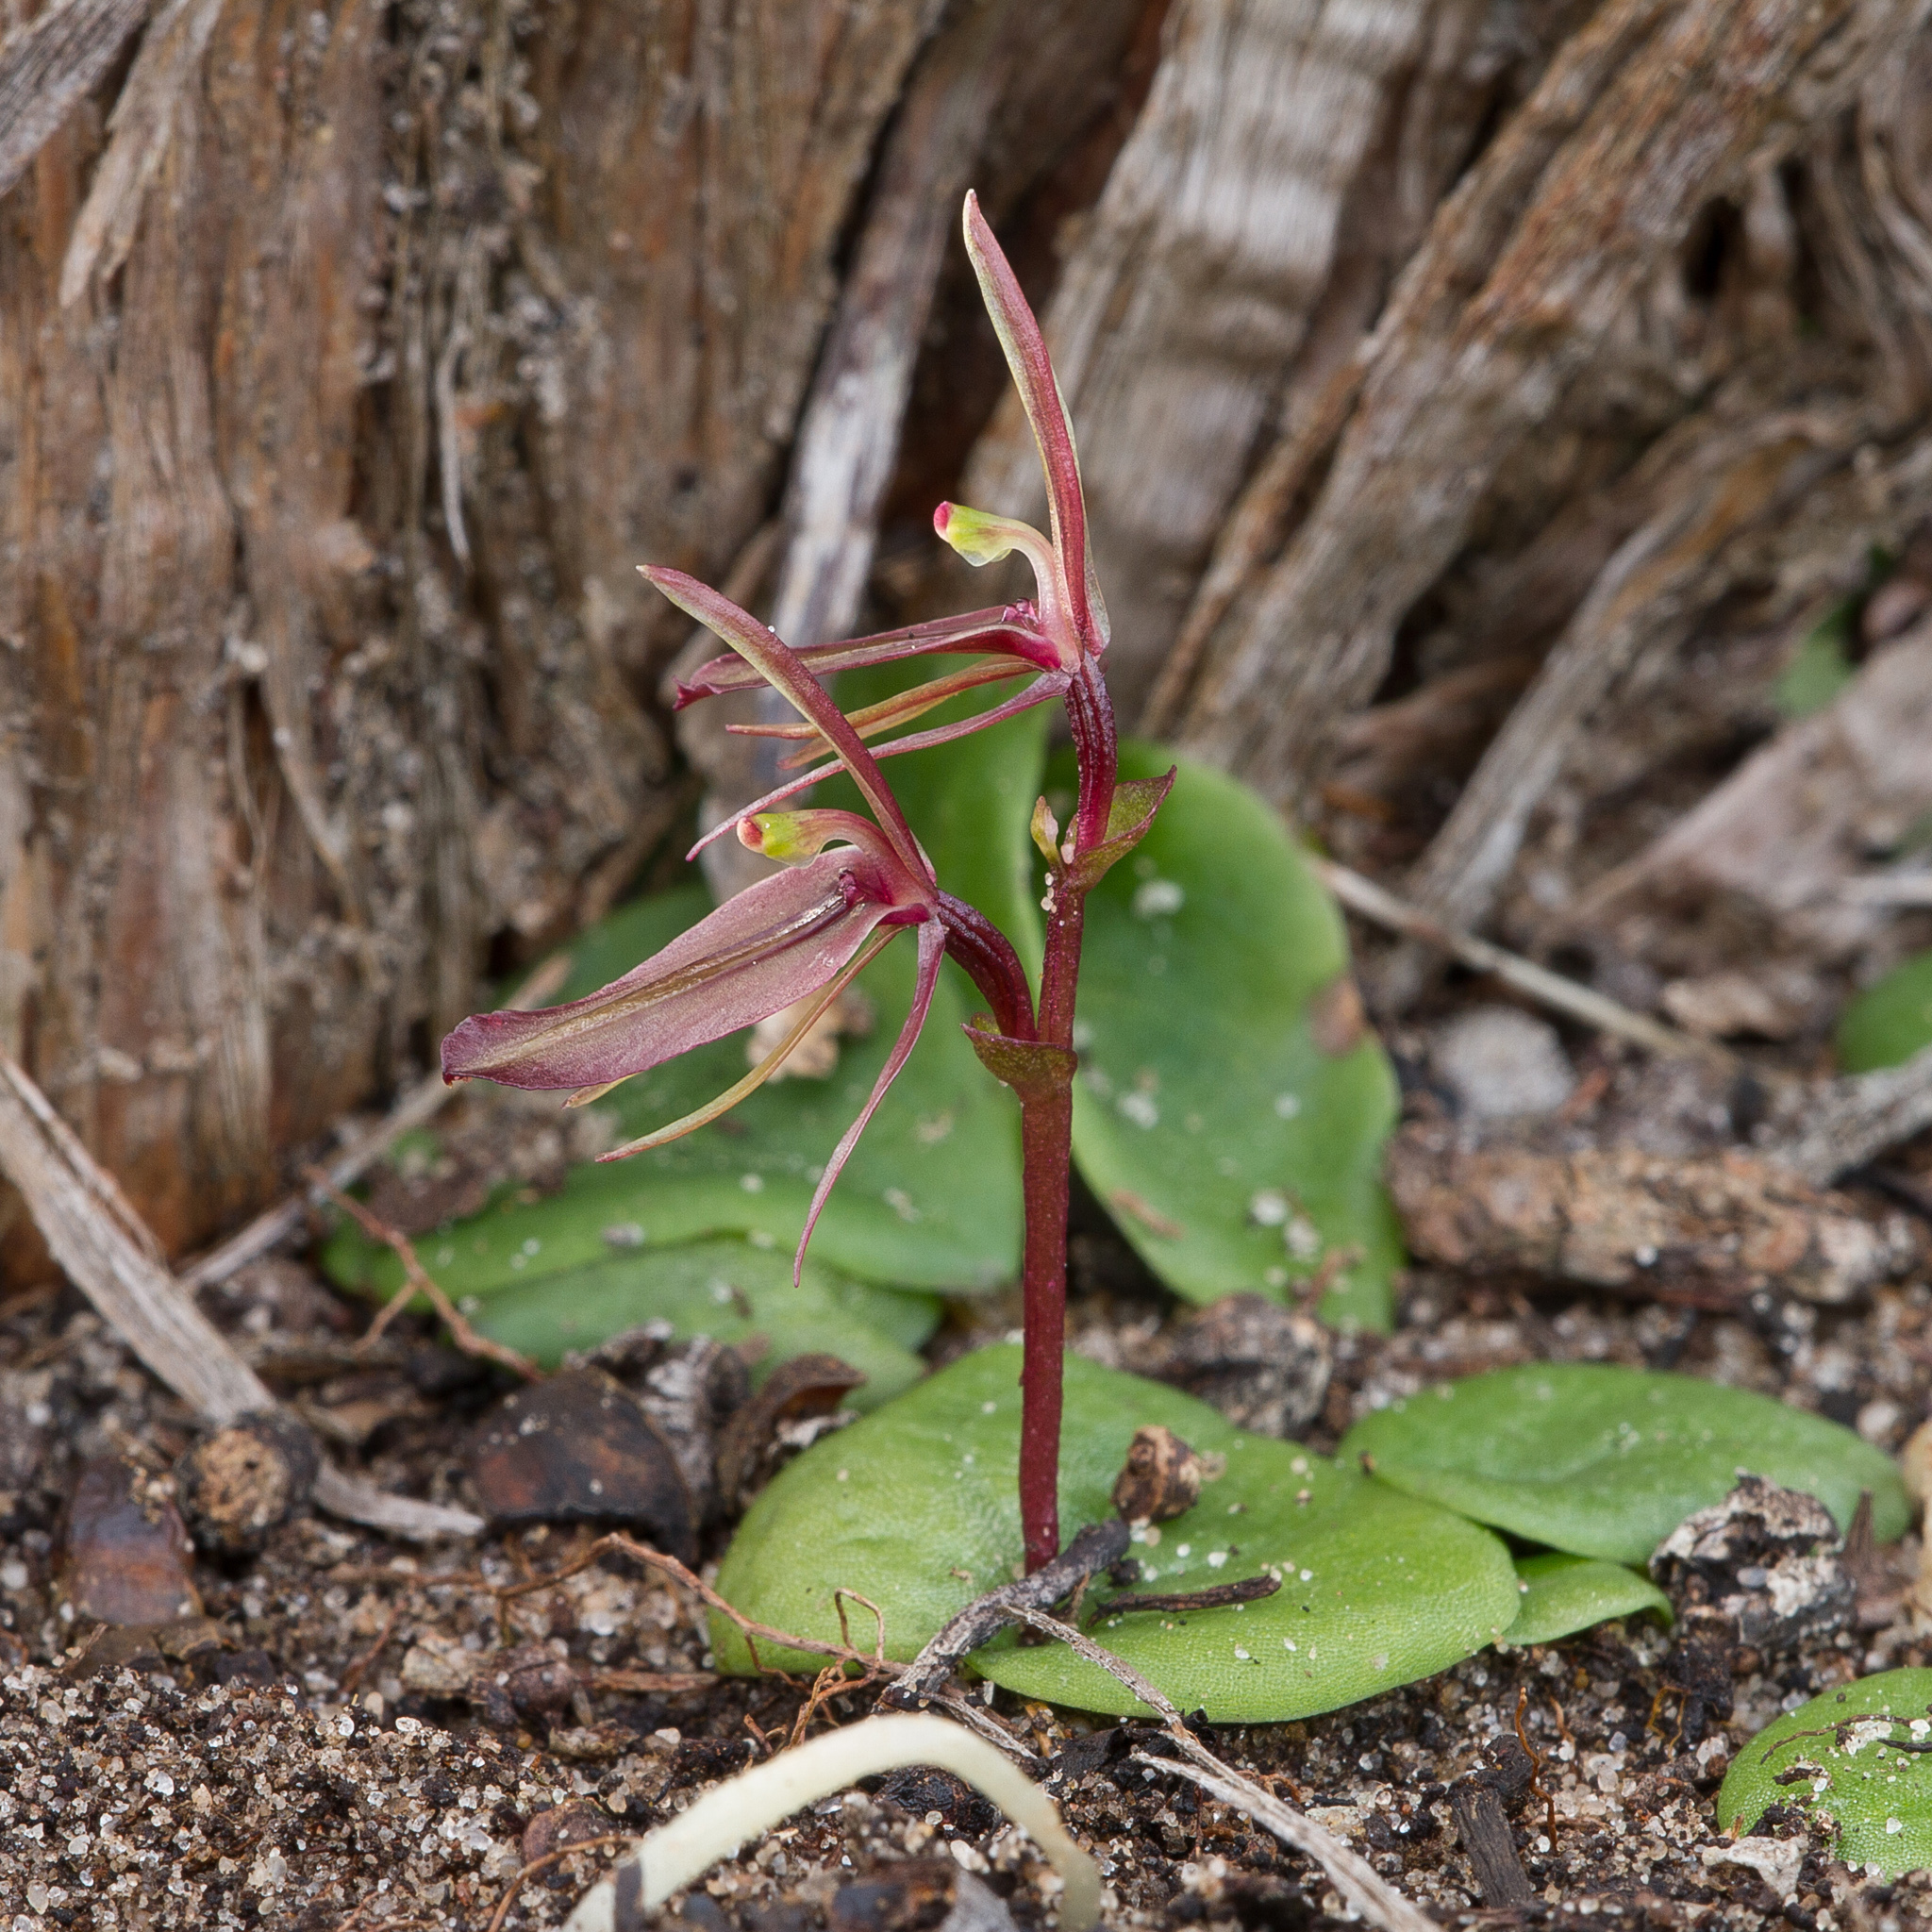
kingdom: Plantae
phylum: Tracheophyta
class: Liliopsida
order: Asparagales
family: Orchidaceae
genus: Cyrtostylis
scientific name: Cyrtostylis robusta
